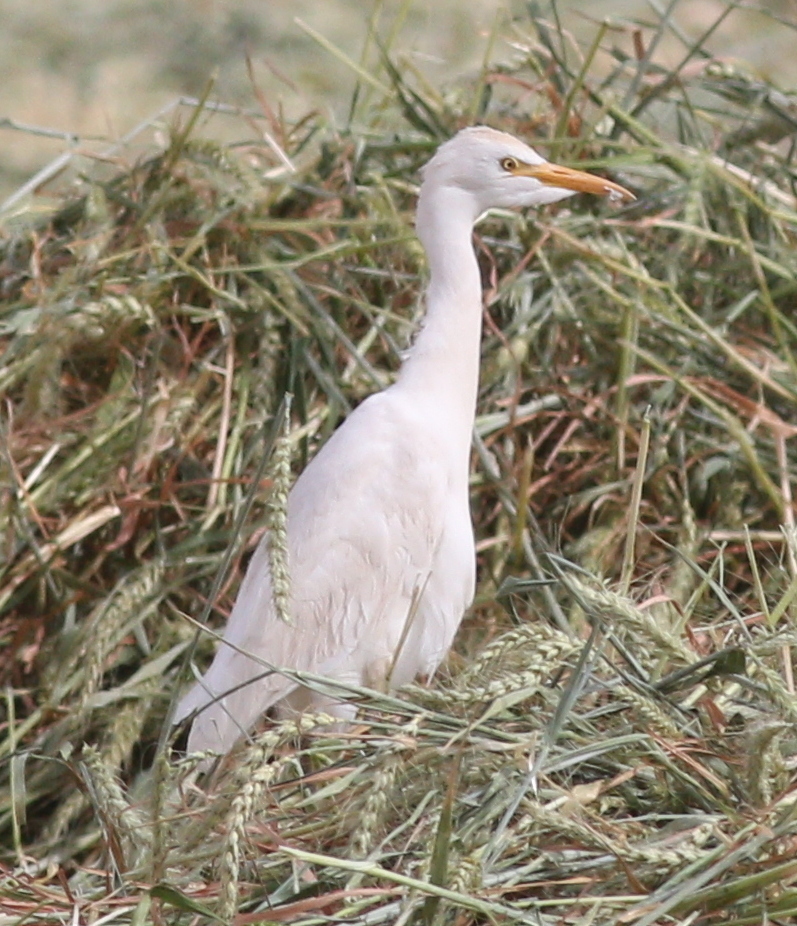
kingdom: Animalia
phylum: Chordata
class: Aves
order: Pelecaniformes
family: Ardeidae
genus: Bubulcus
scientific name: Bubulcus ibis
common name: Cattle egret
